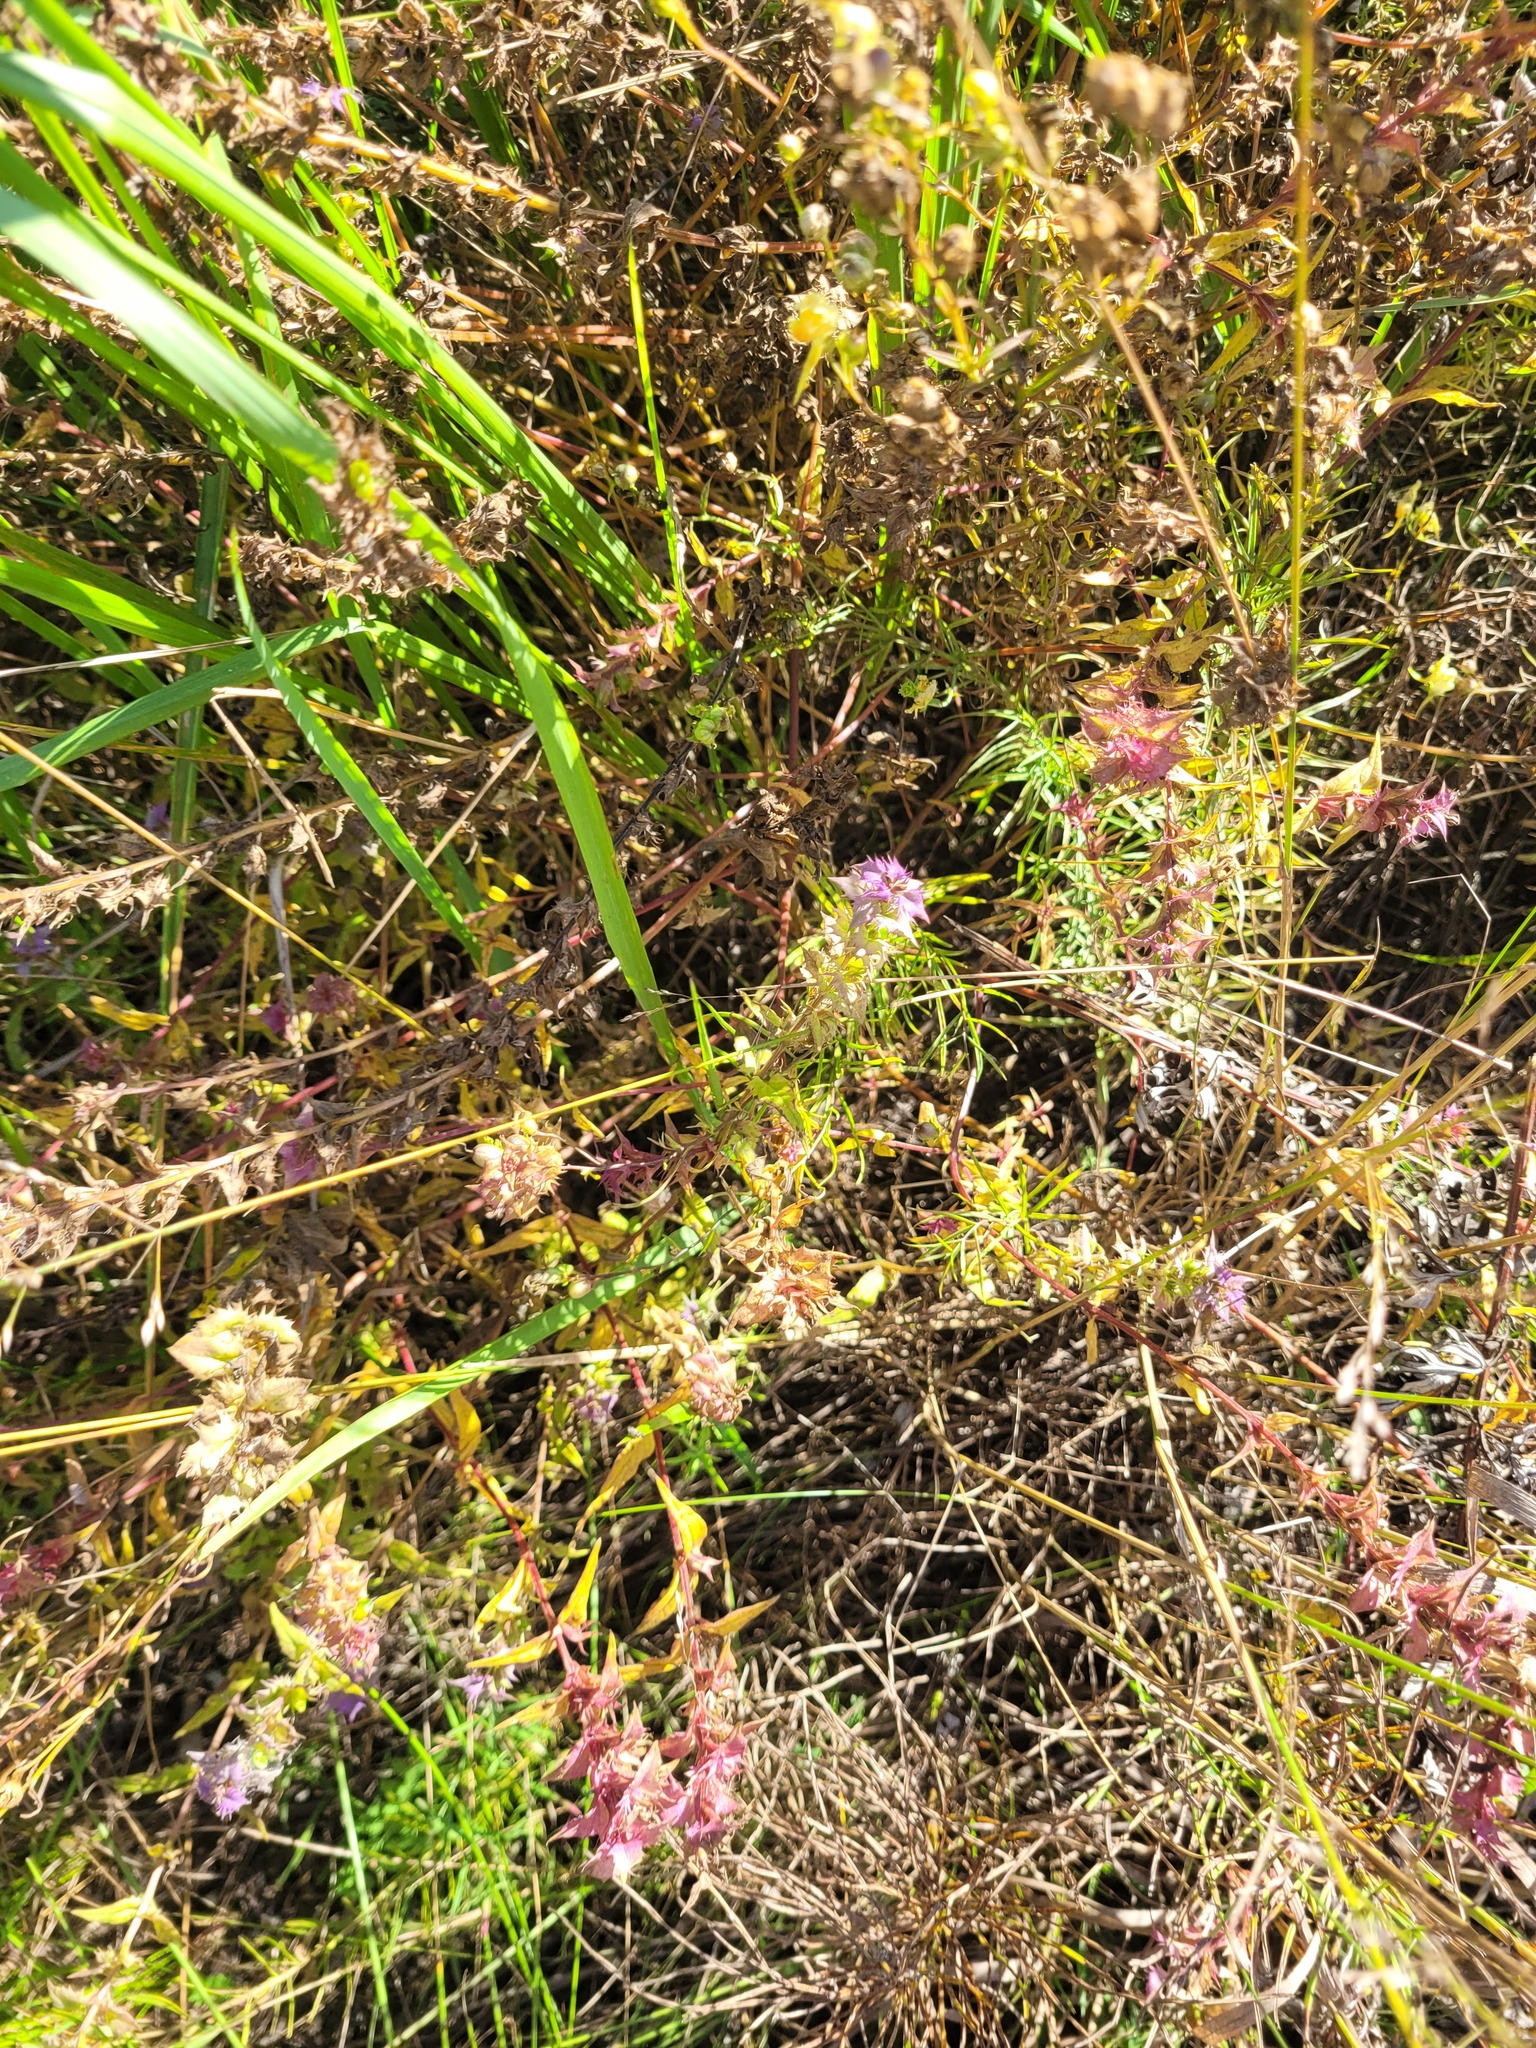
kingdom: Plantae
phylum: Tracheophyta
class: Magnoliopsida
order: Lamiales
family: Orobanchaceae
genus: Melampyrum
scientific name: Melampyrum nemorosum
